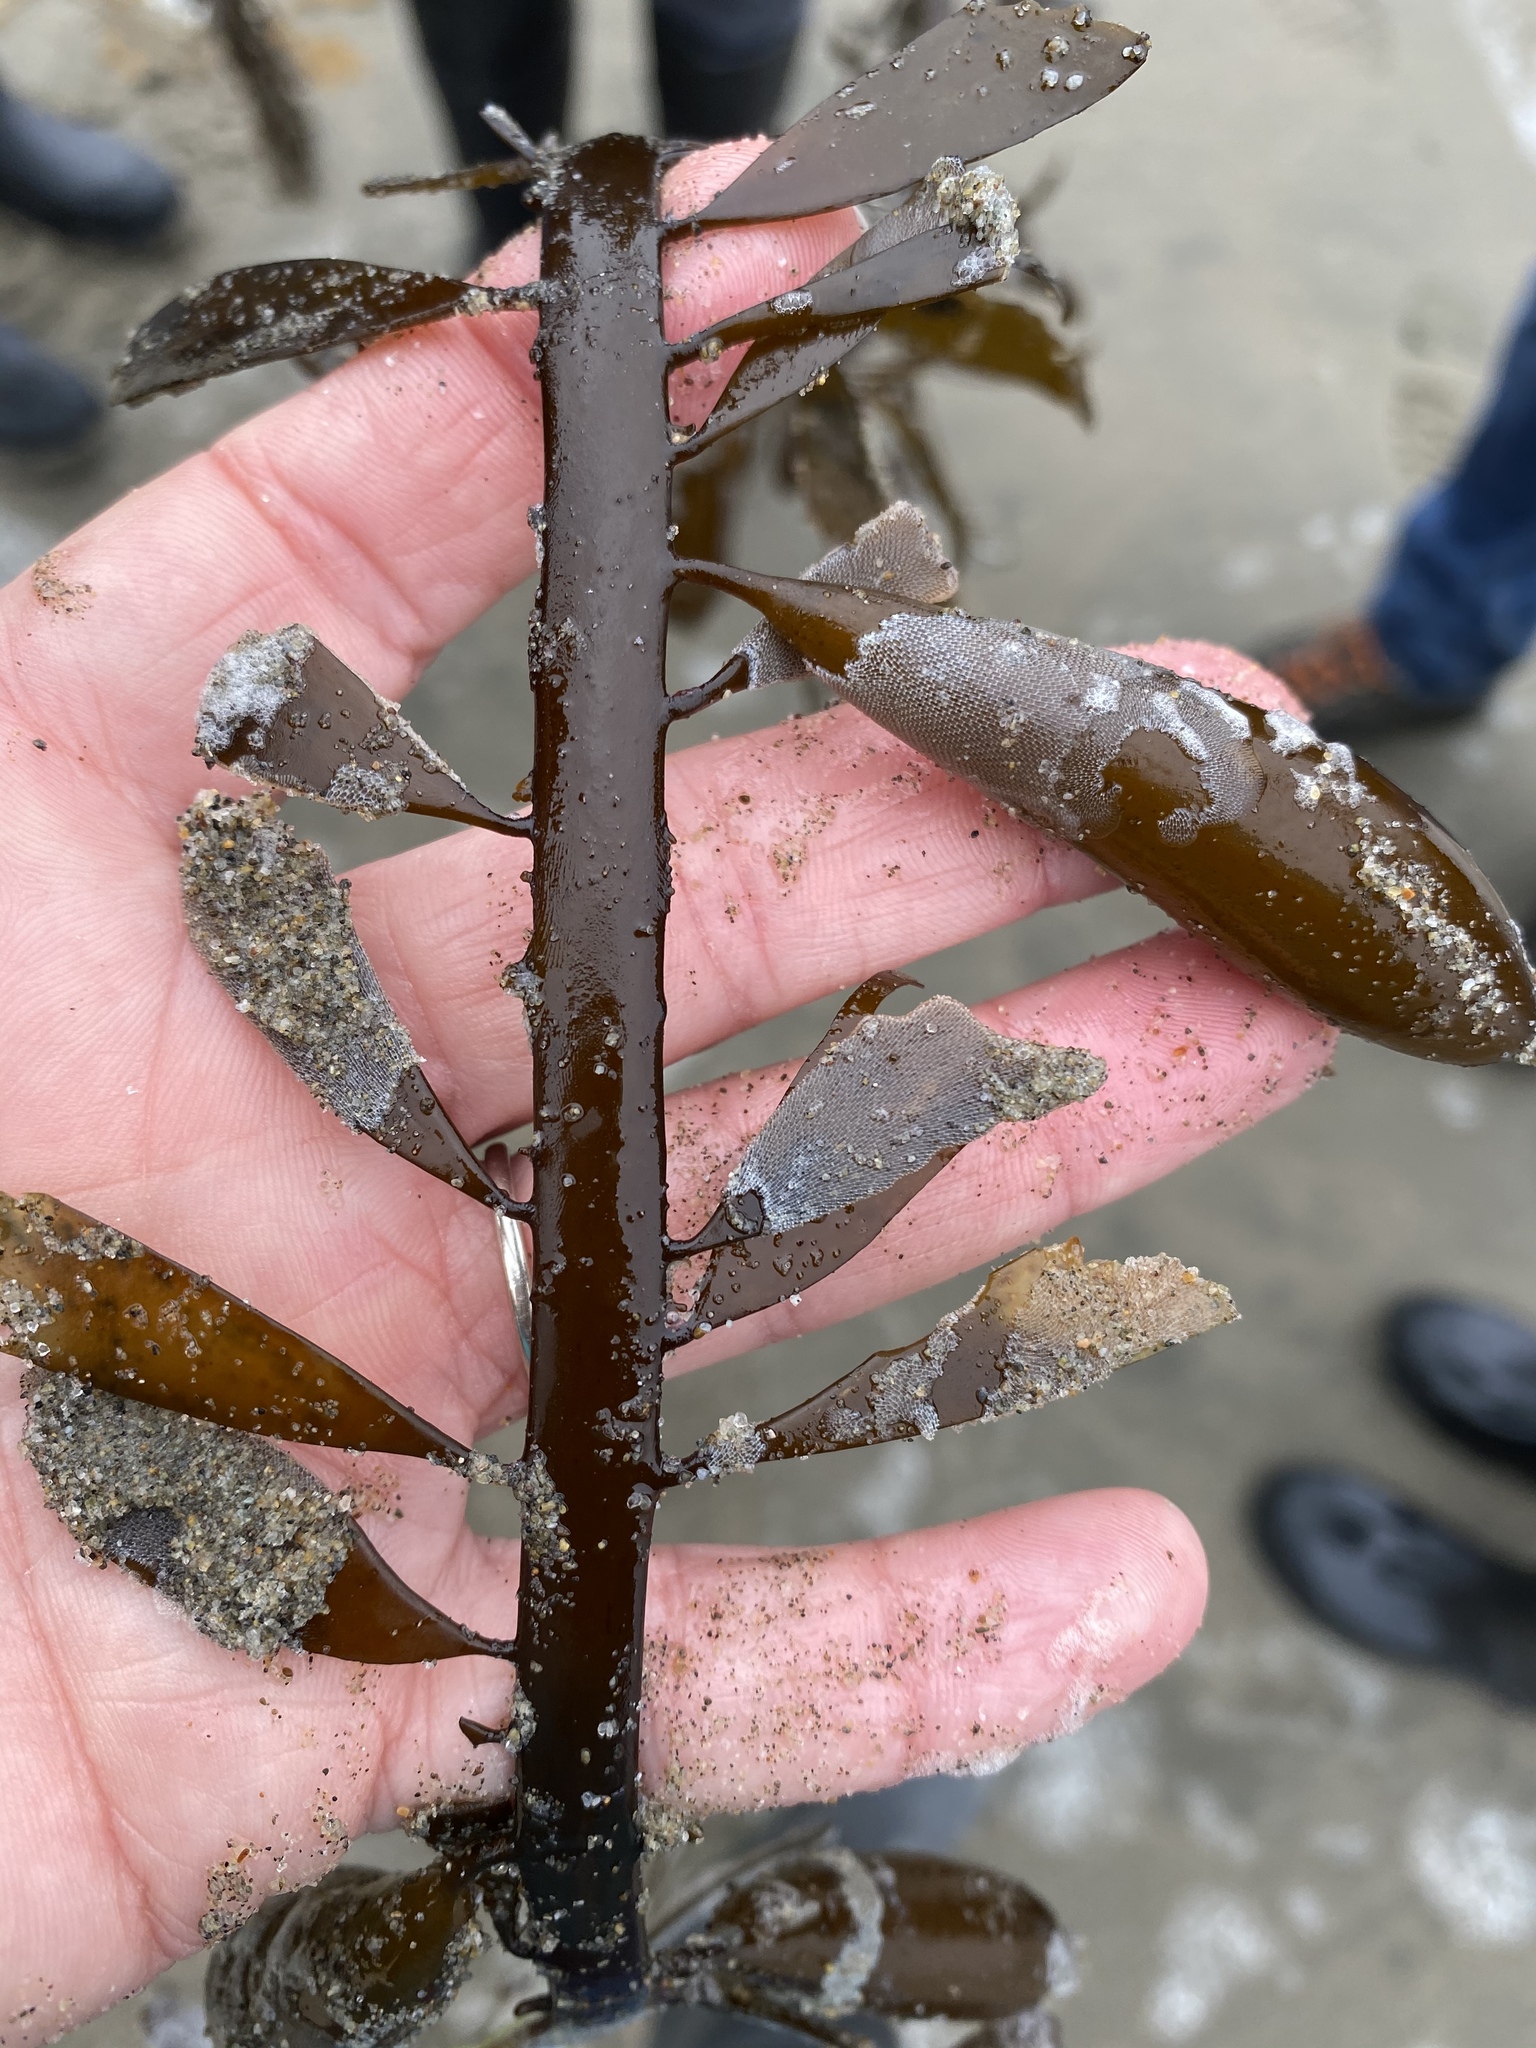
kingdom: Chromista
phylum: Ochrophyta
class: Phaeophyceae
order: Laminariales
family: Lessoniaceae
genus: Egregia
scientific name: Egregia menziesii
